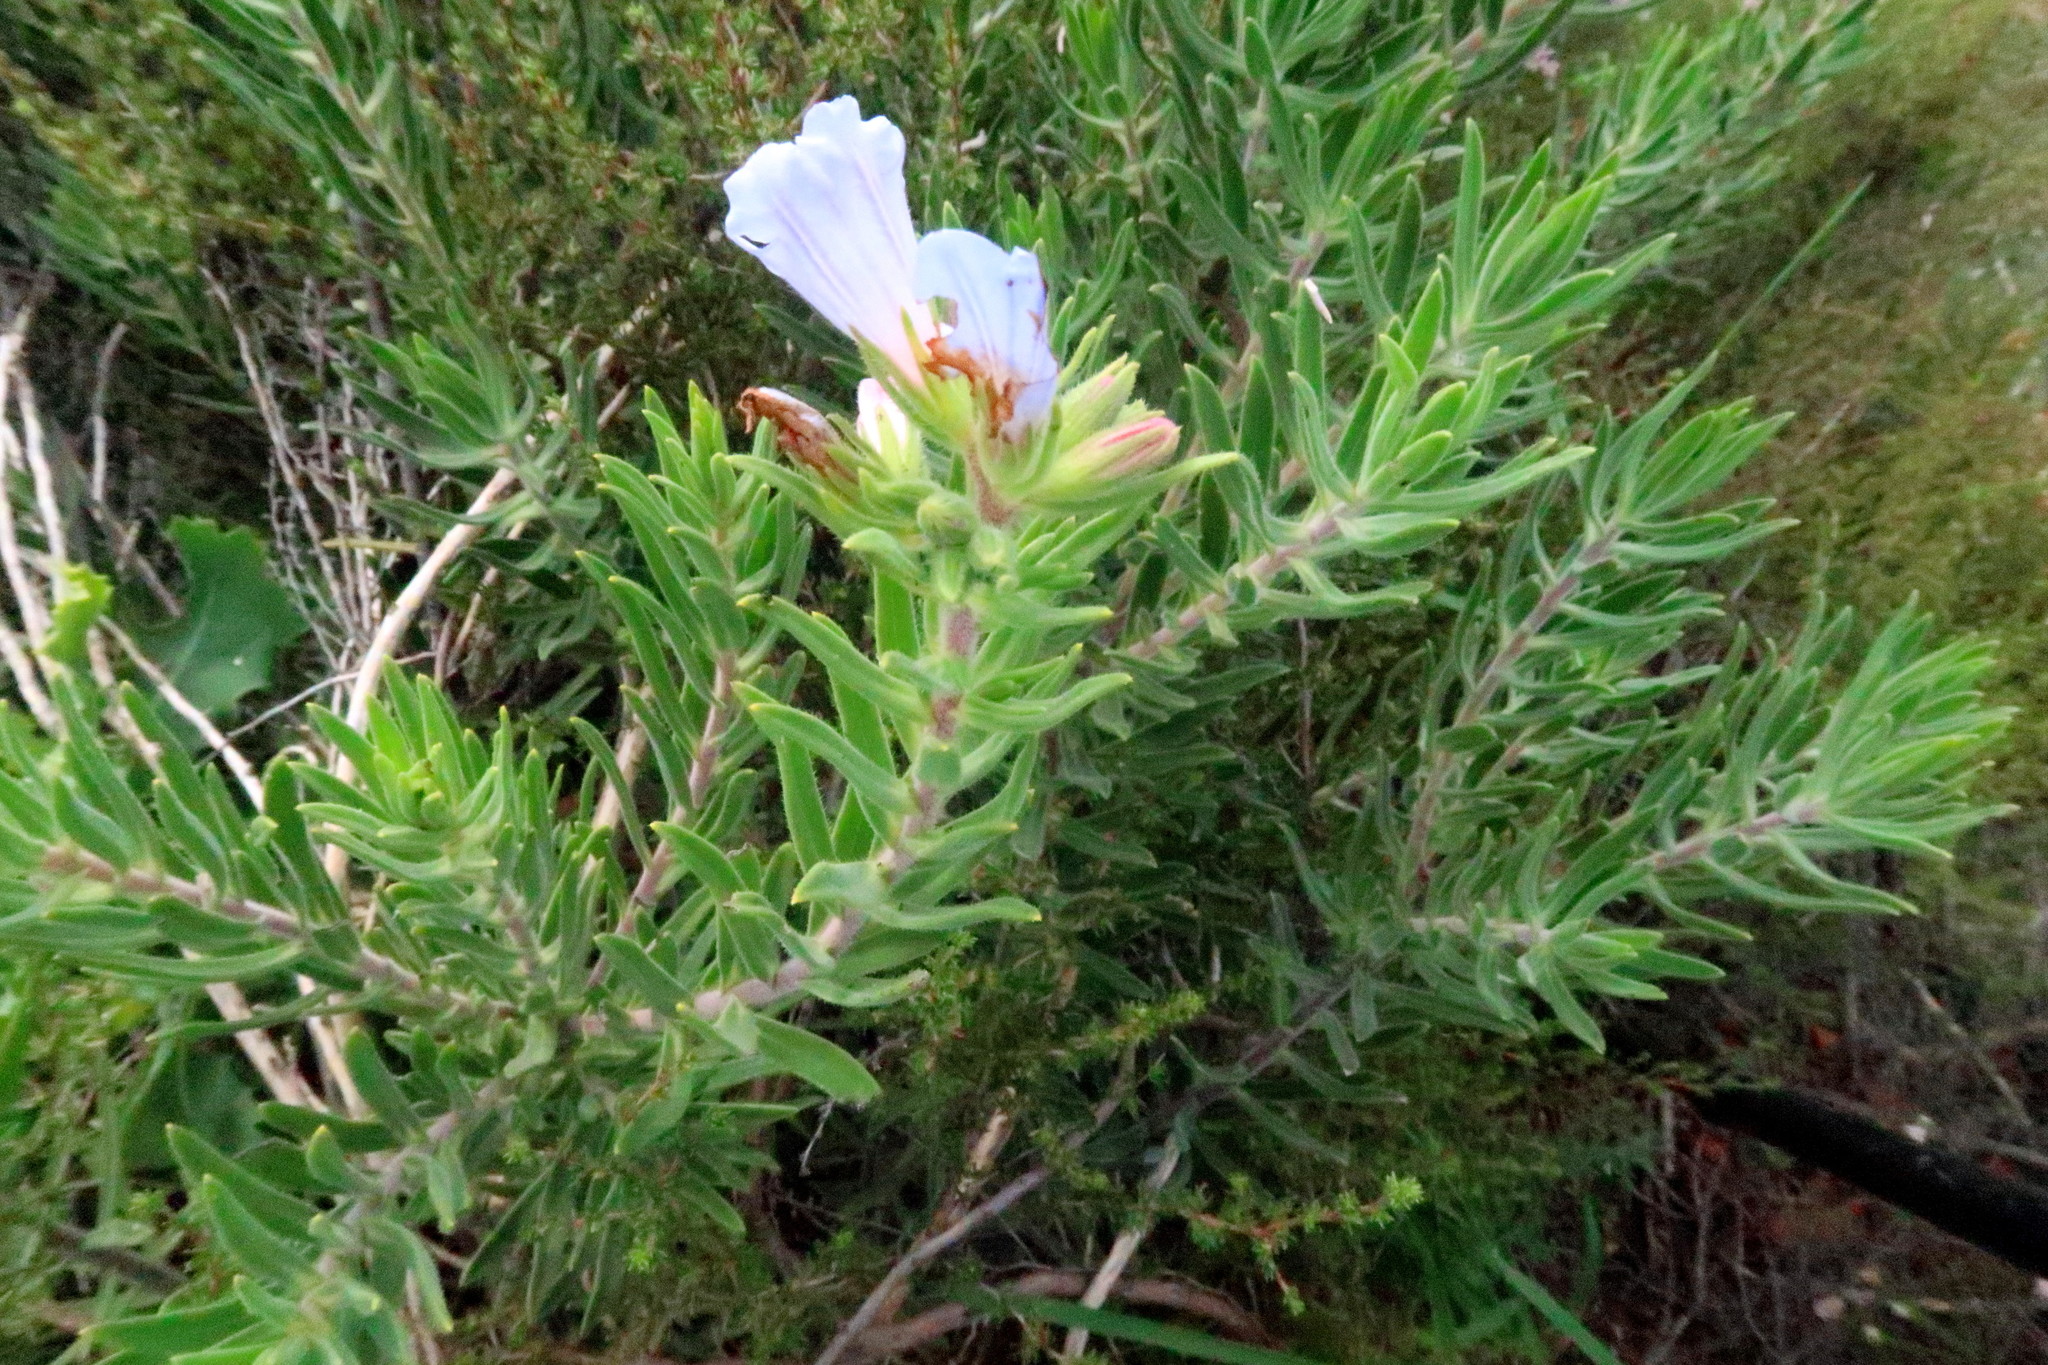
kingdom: Plantae
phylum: Tracheophyta
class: Magnoliopsida
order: Boraginales
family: Boraginaceae
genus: Lobostemon
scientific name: Lobostemon fruticosus
